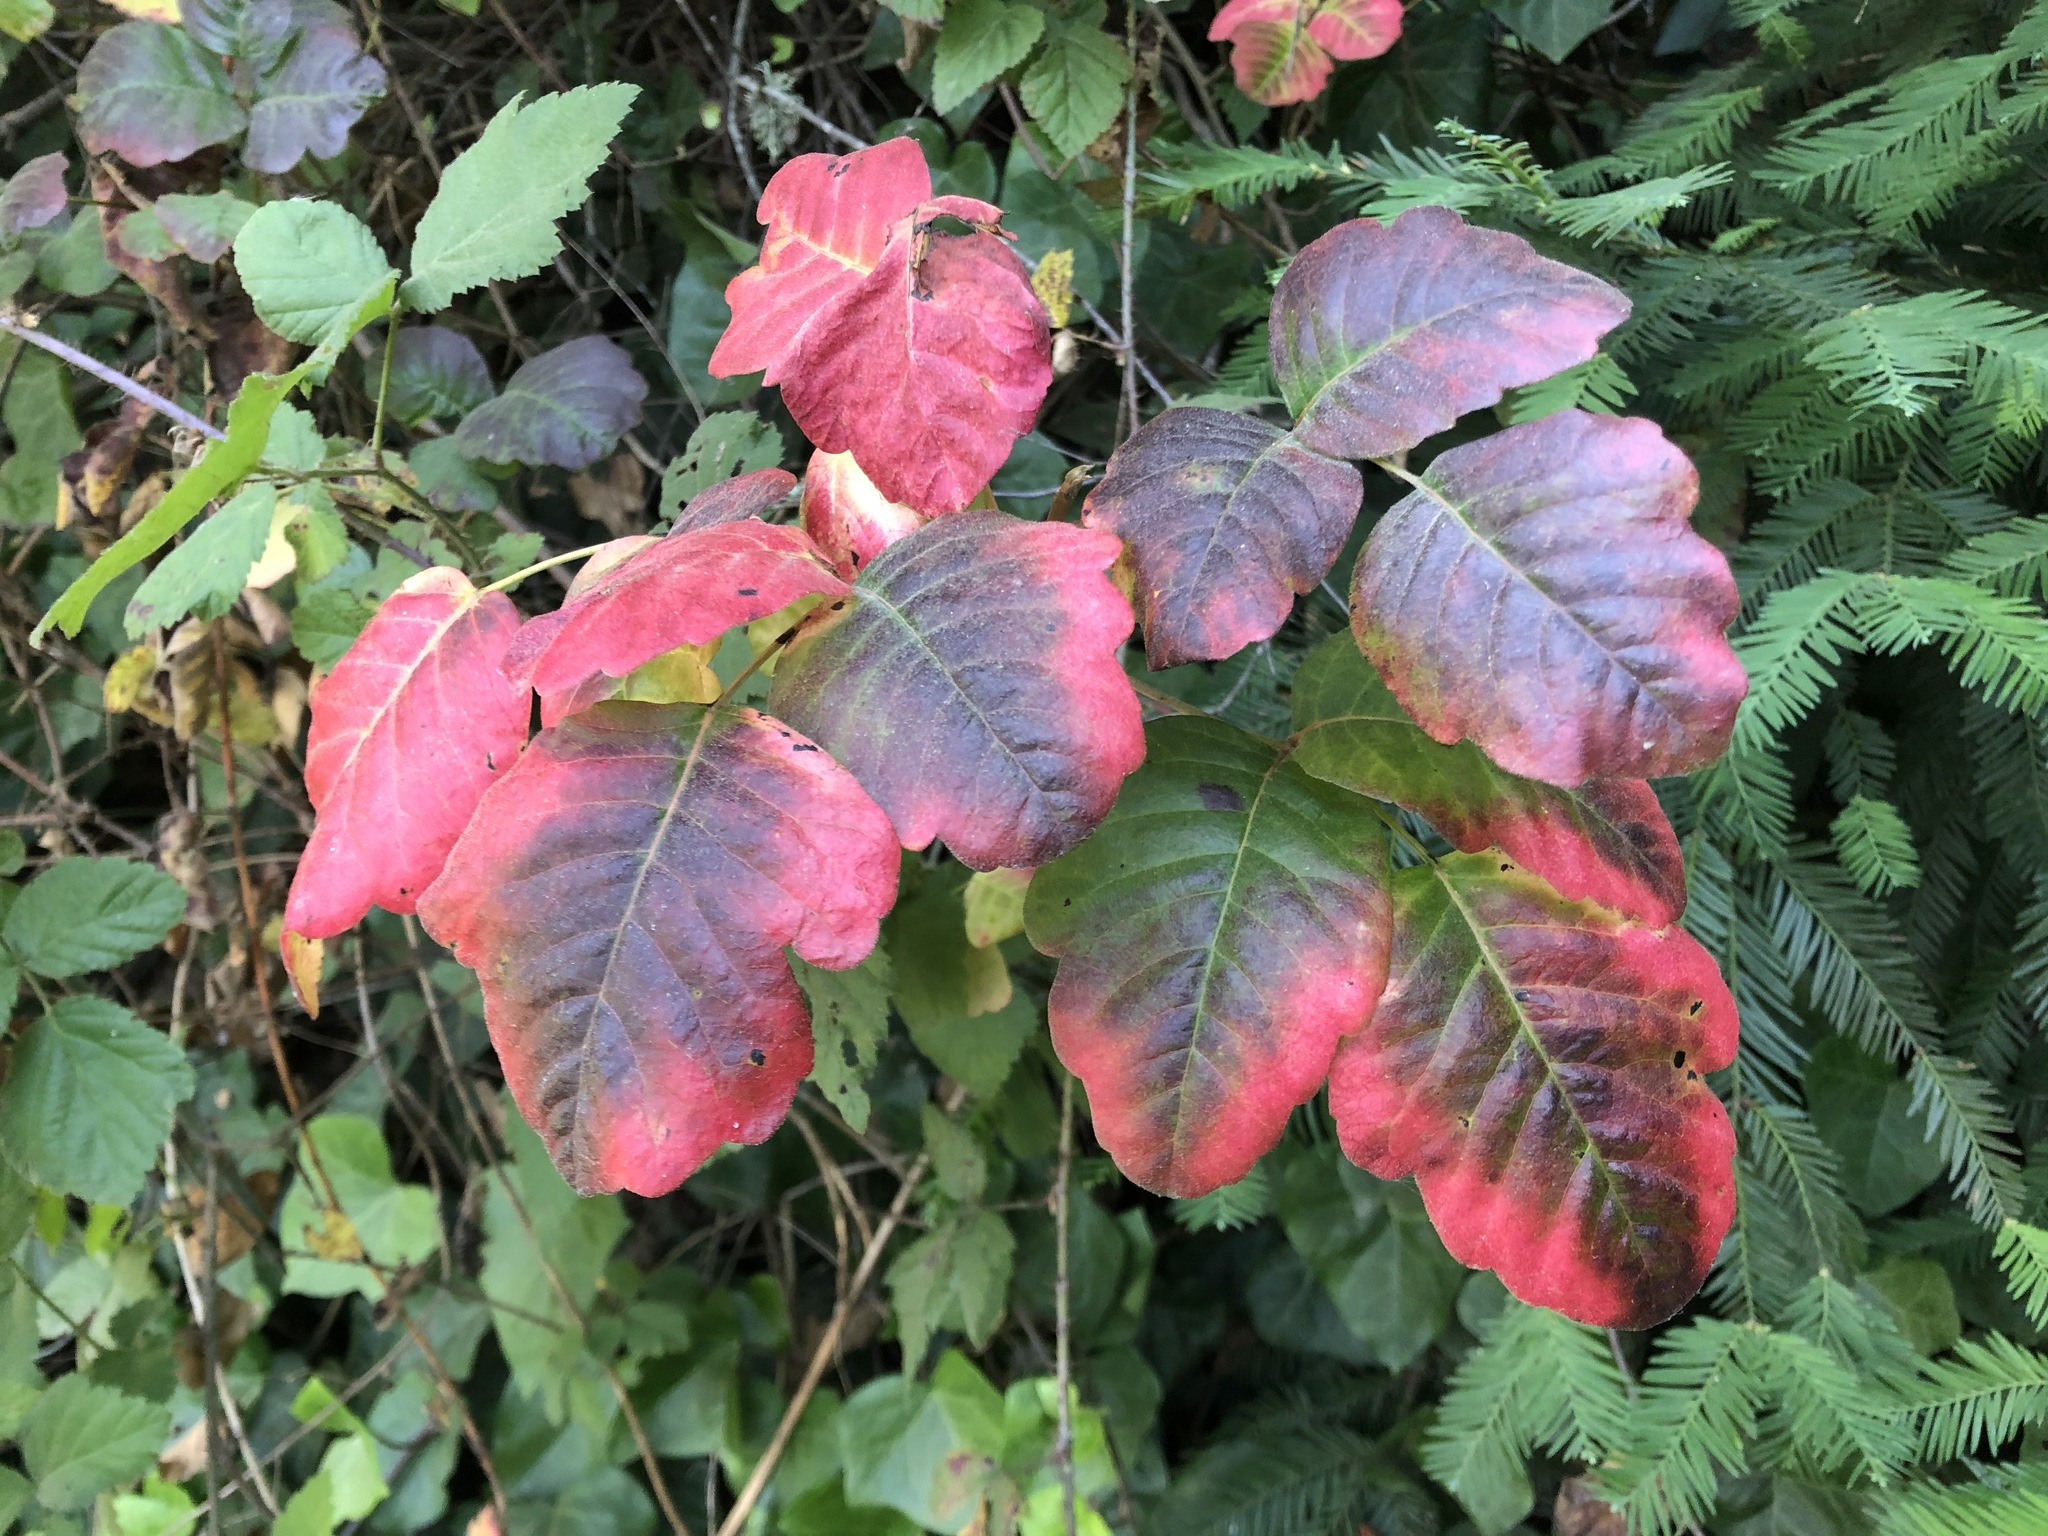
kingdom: Plantae
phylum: Tracheophyta
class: Magnoliopsida
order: Sapindales
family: Anacardiaceae
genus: Toxicodendron
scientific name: Toxicodendron diversilobum
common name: Pacific poison-oak
